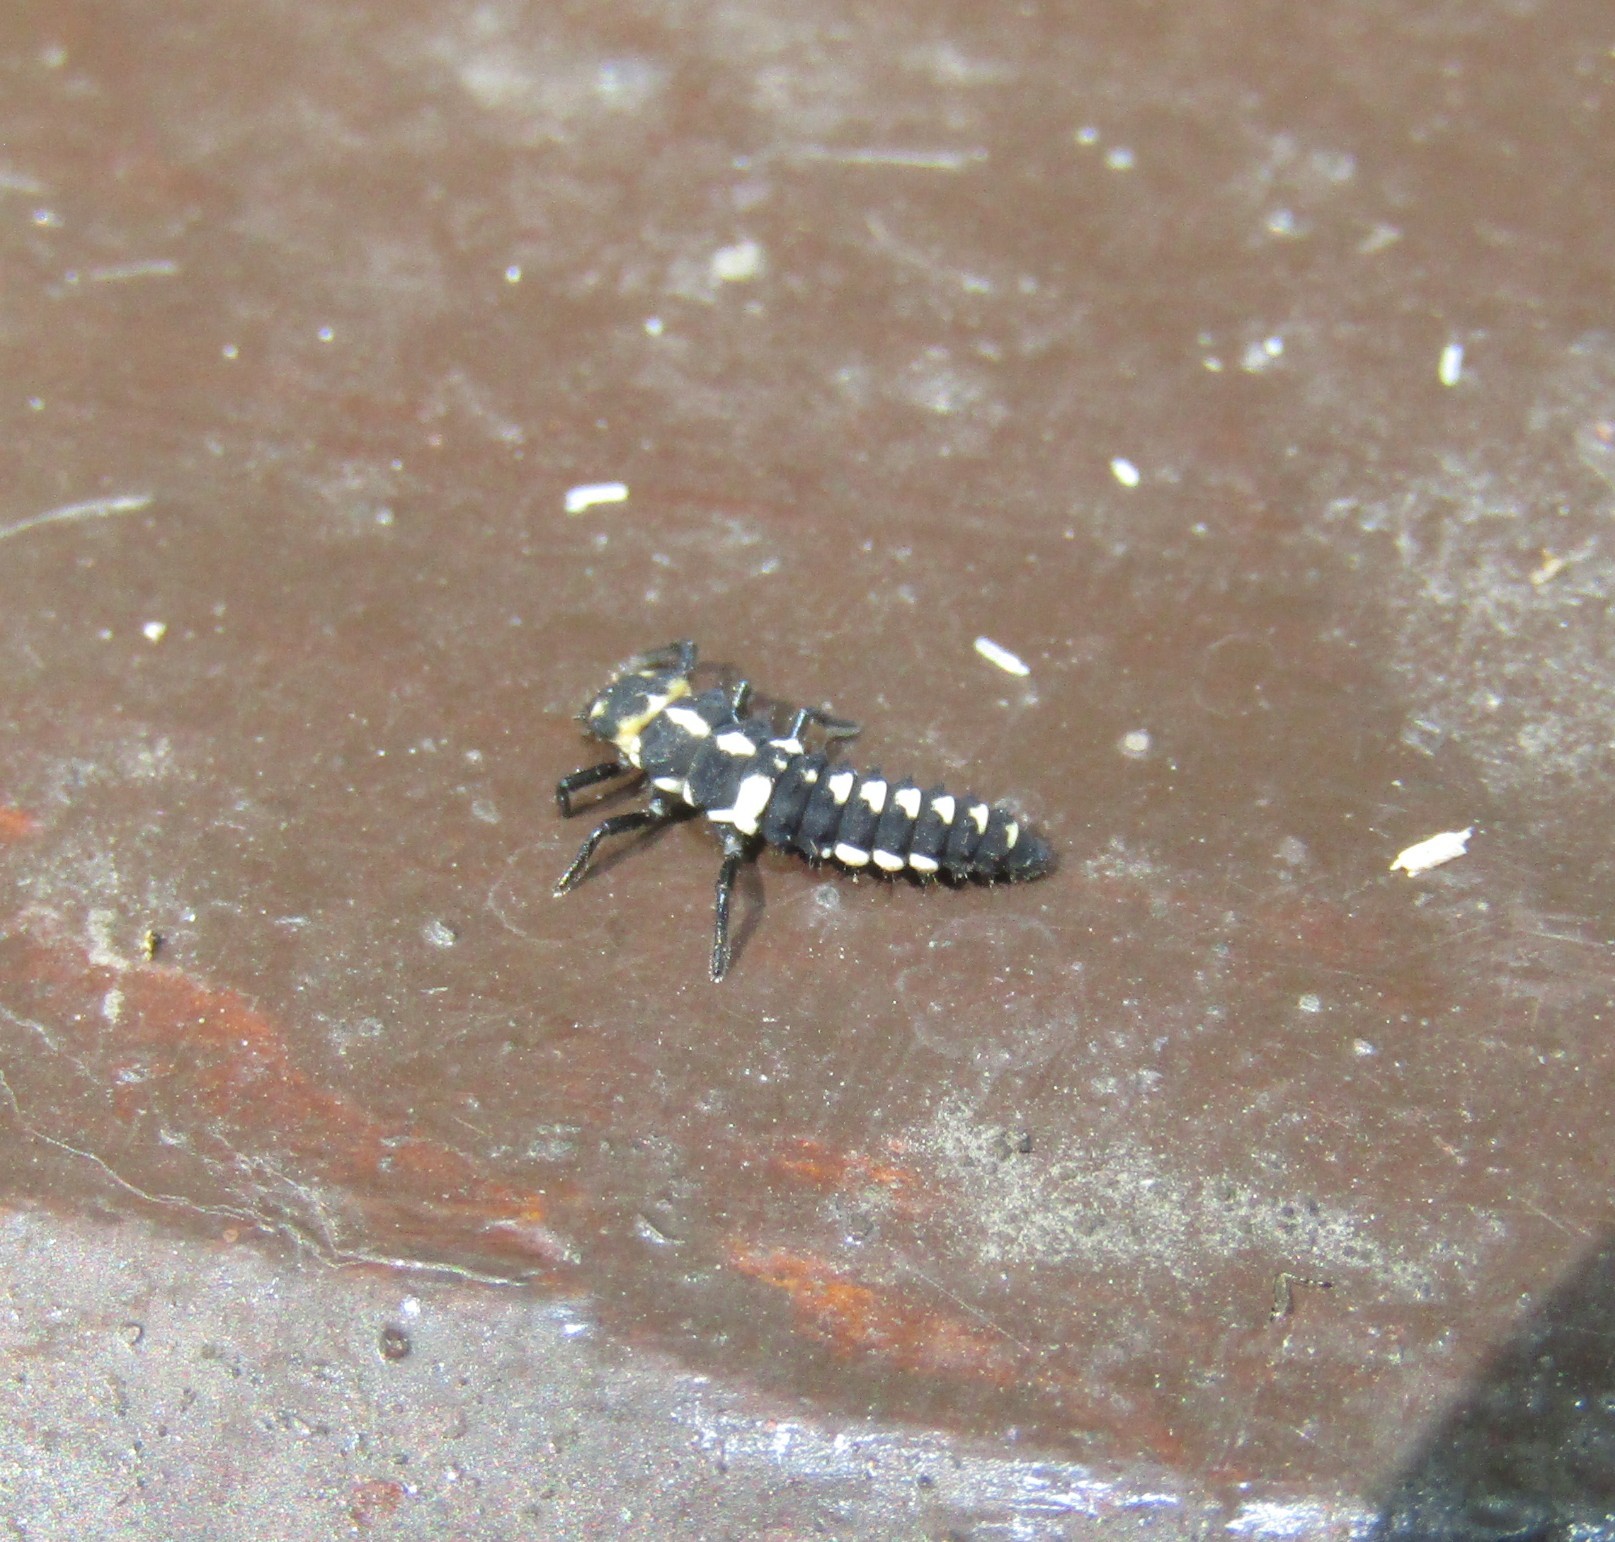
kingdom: Animalia
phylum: Arthropoda
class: Insecta
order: Coleoptera
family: Coccinellidae
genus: Eriopis
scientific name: Eriopis connexa
